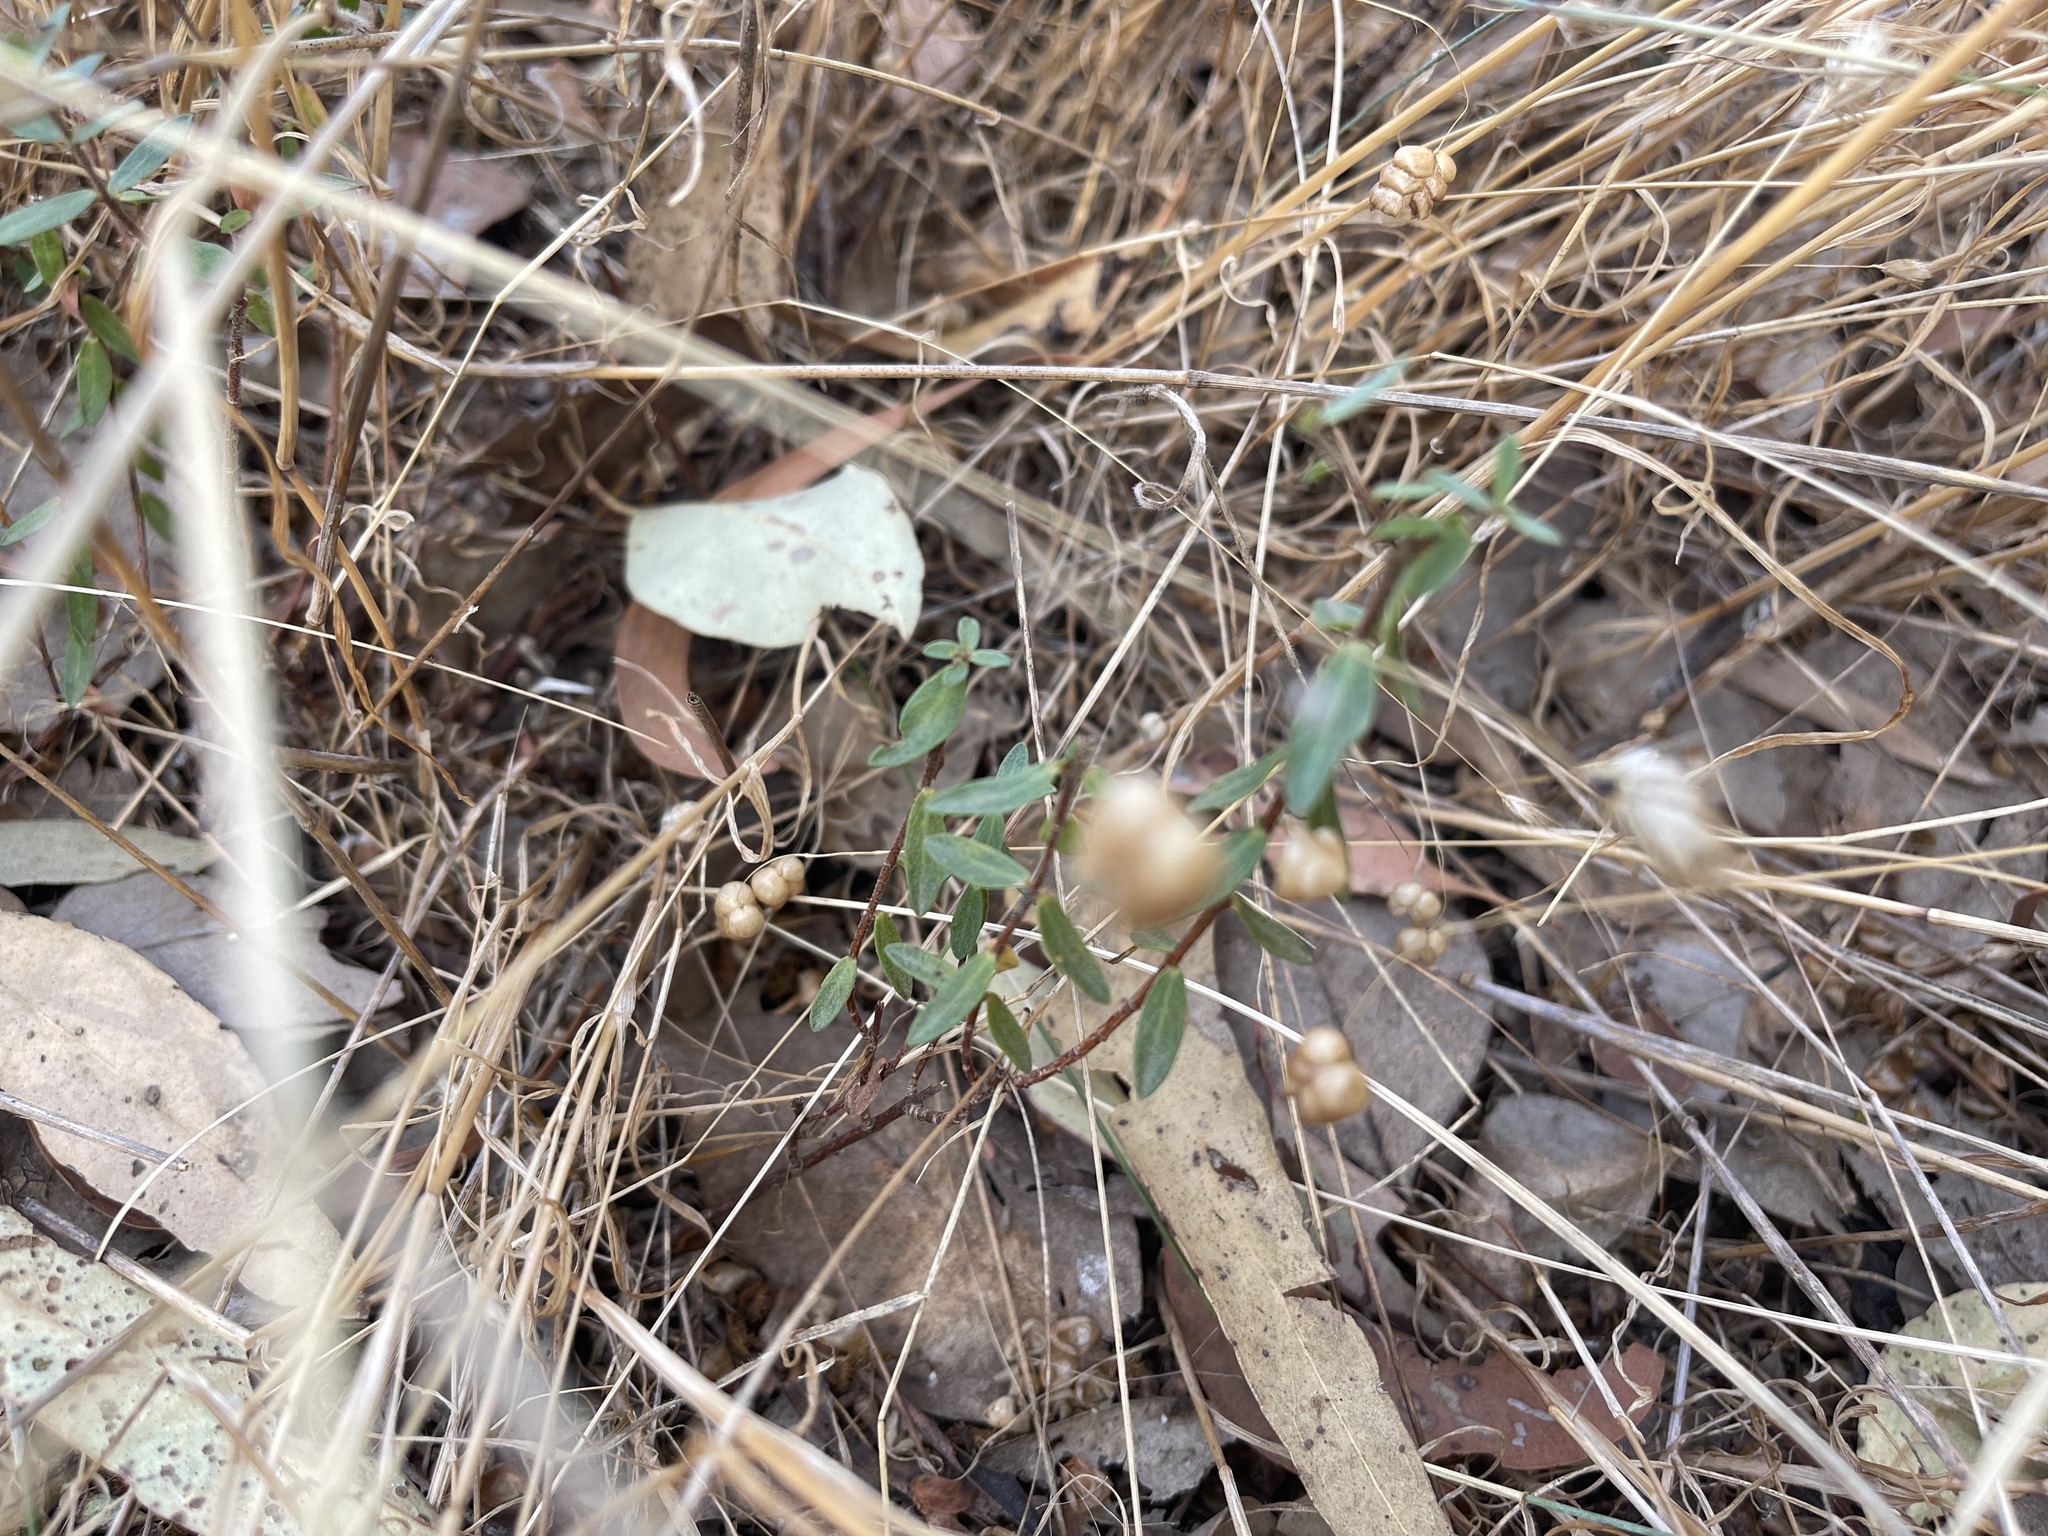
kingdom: Plantae
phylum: Tracheophyta
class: Magnoliopsida
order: Malvales
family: Thymelaeaceae
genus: Pimelea
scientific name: Pimelea humilis
